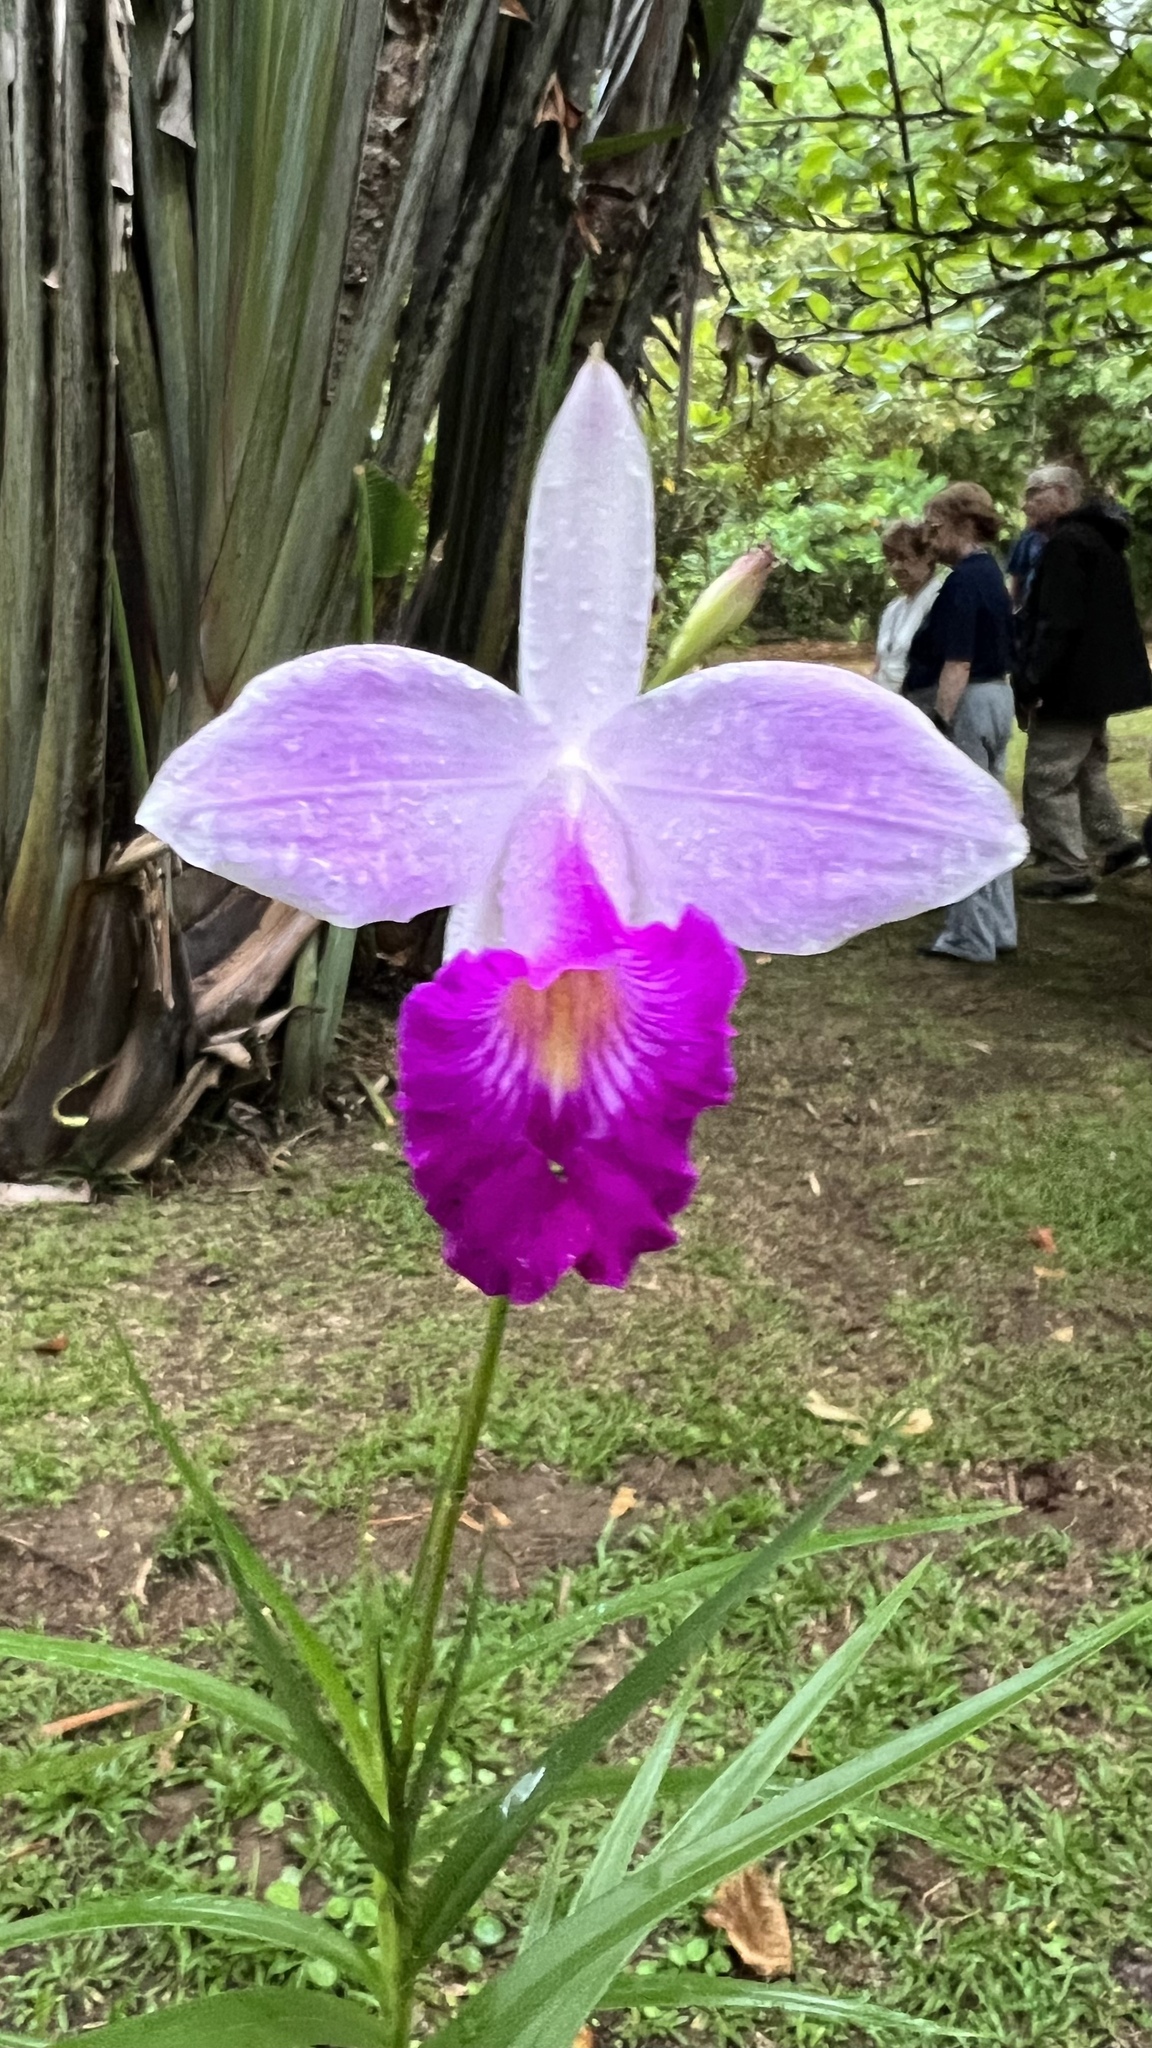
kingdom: Plantae
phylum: Tracheophyta
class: Liliopsida
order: Asparagales
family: Orchidaceae
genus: Arundina
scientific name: Arundina graminifolia
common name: Bamboo orchid
